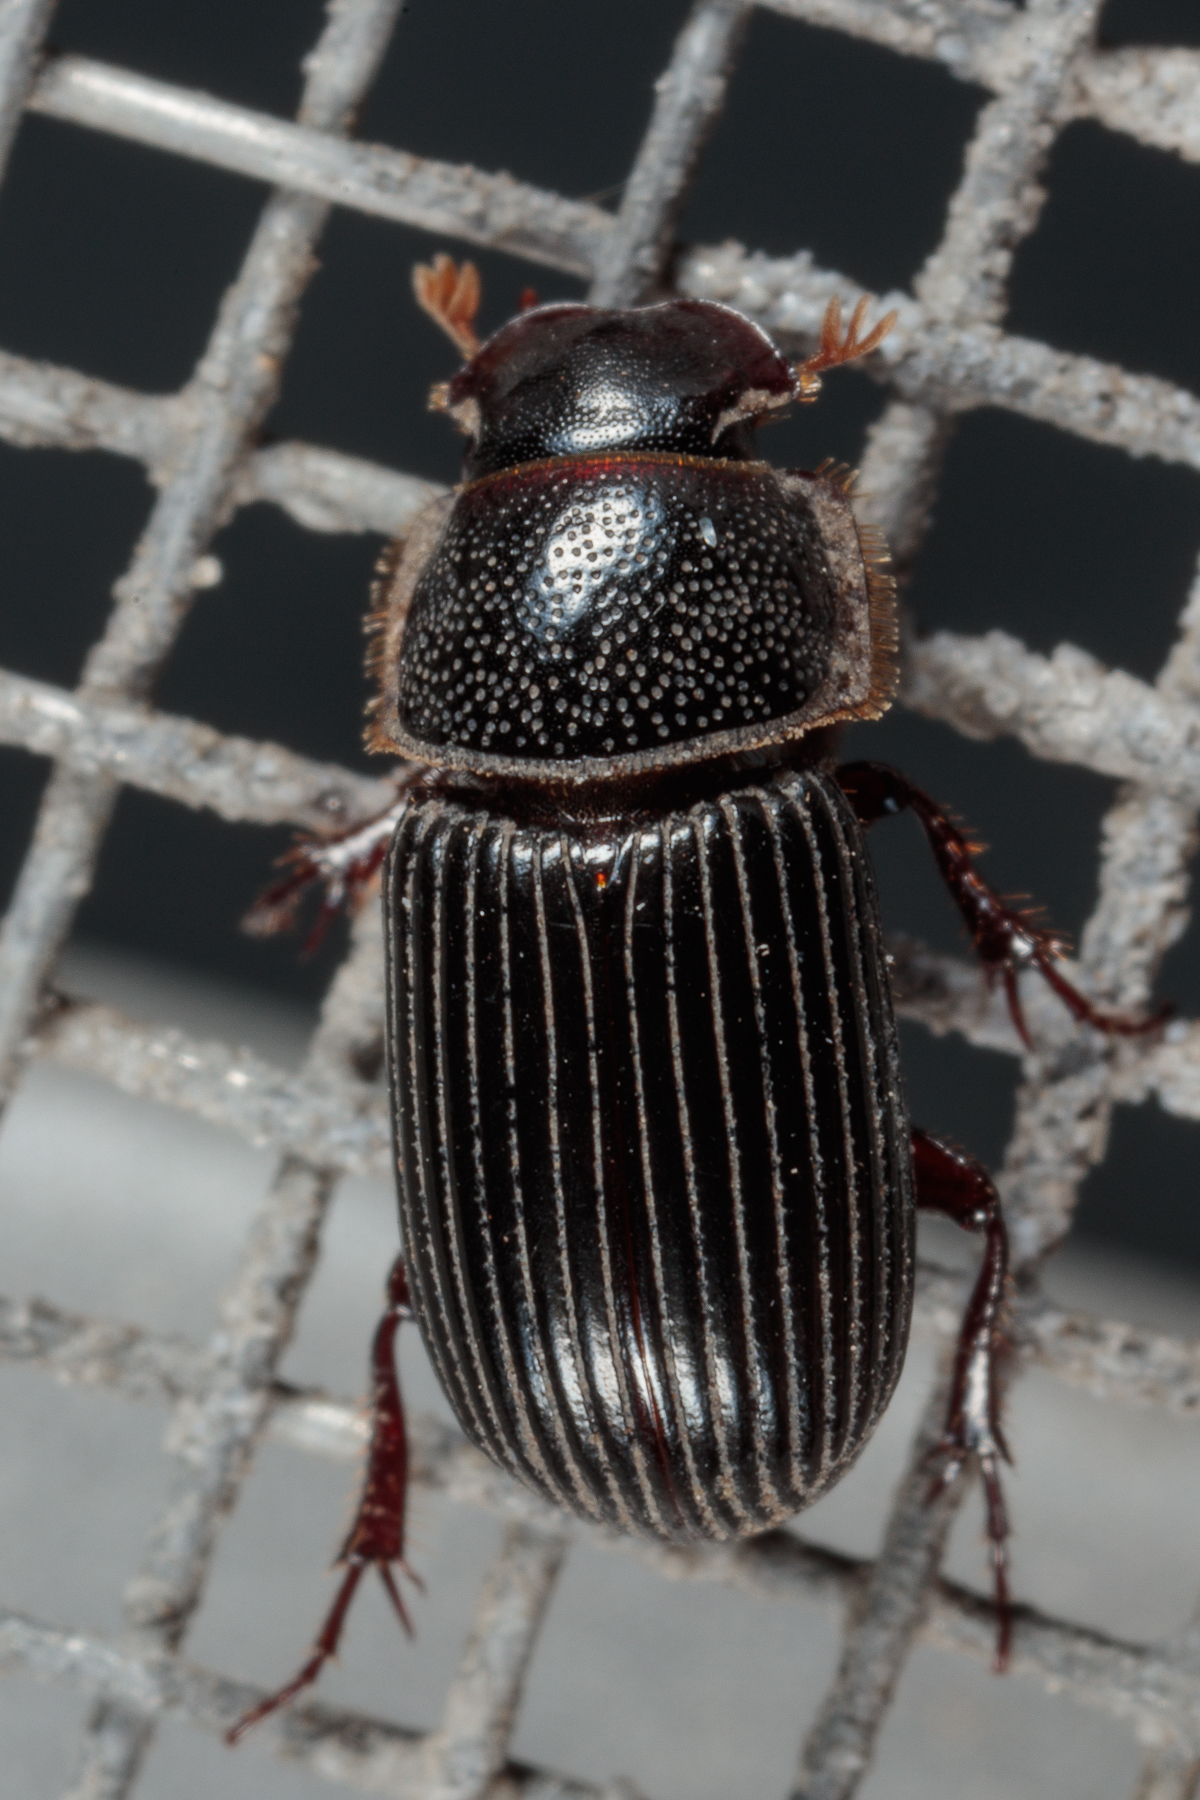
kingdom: Animalia
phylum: Arthropoda
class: Insecta
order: Coleoptera
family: Scarabaeidae
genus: Martineziana
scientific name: Martineziana dutertrei
